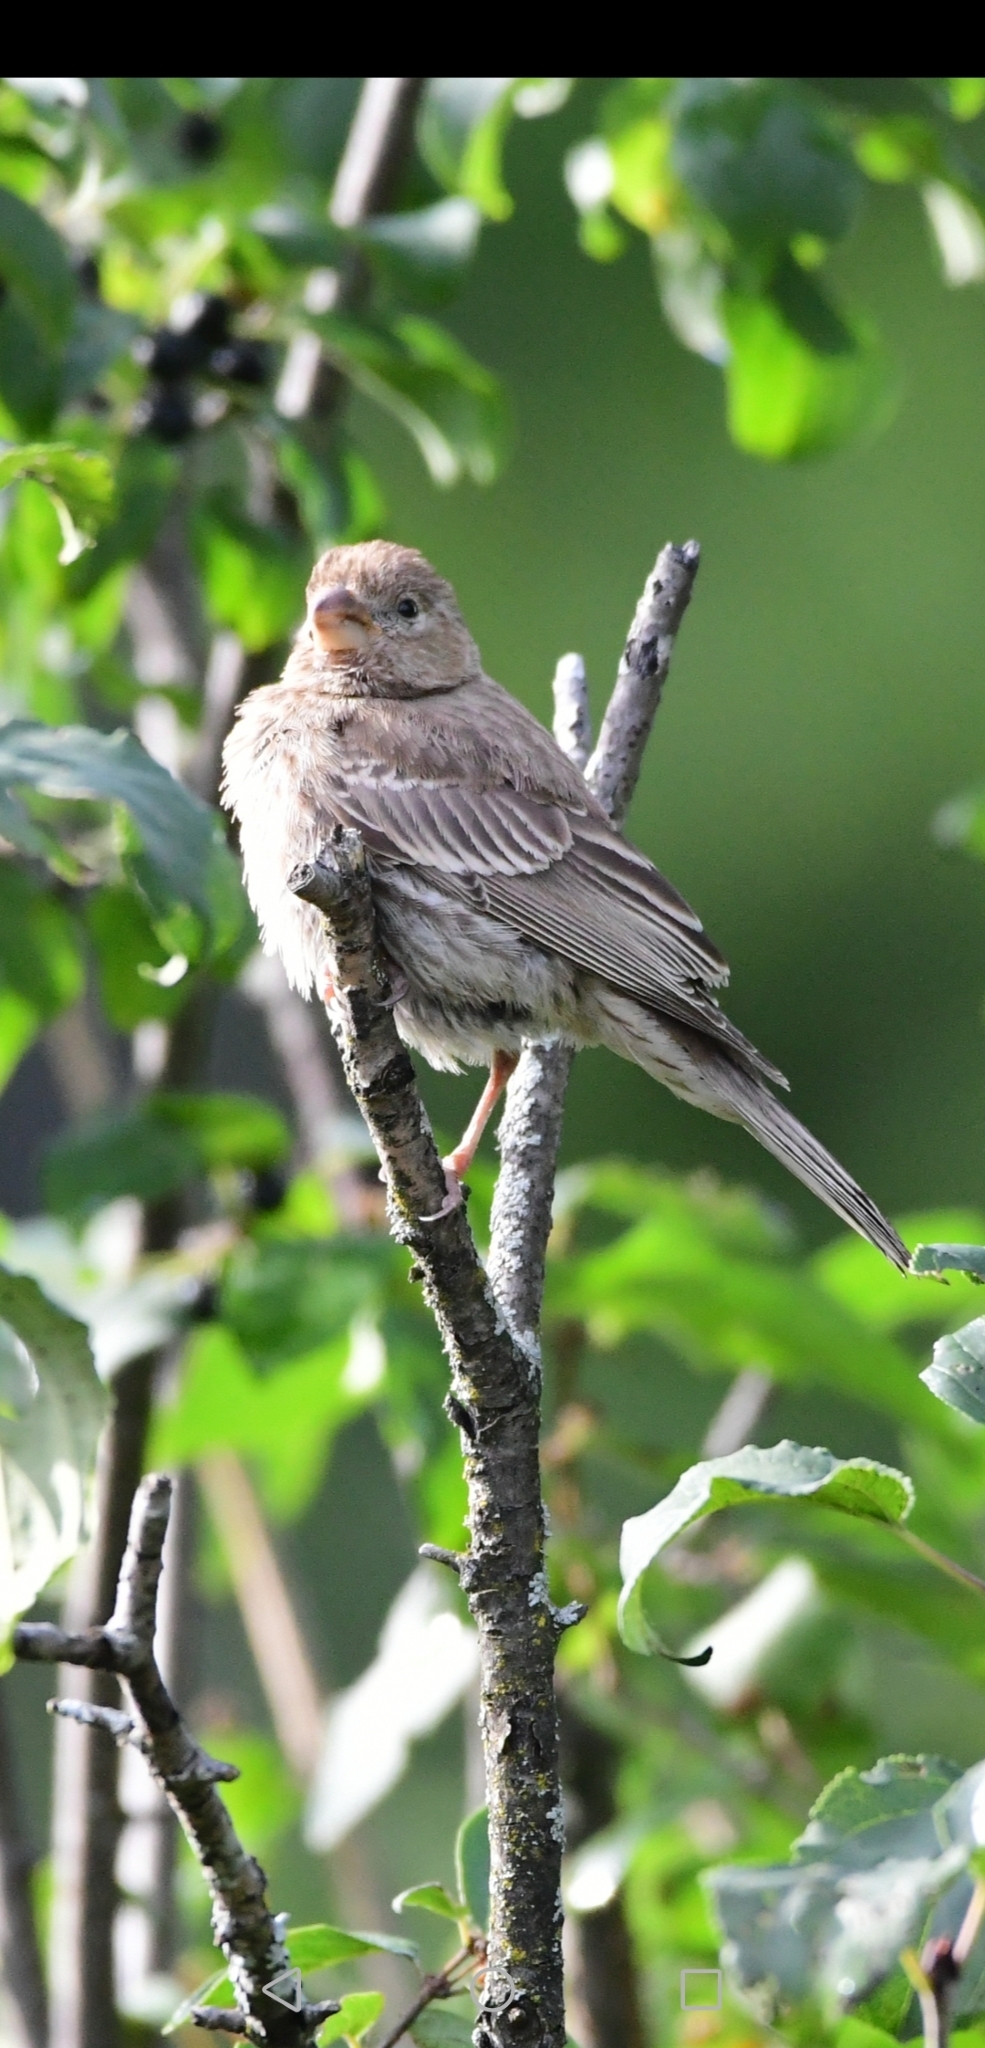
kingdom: Animalia
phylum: Chordata
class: Aves
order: Passeriformes
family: Fringillidae
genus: Haemorhous
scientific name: Haemorhous mexicanus
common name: House finch
